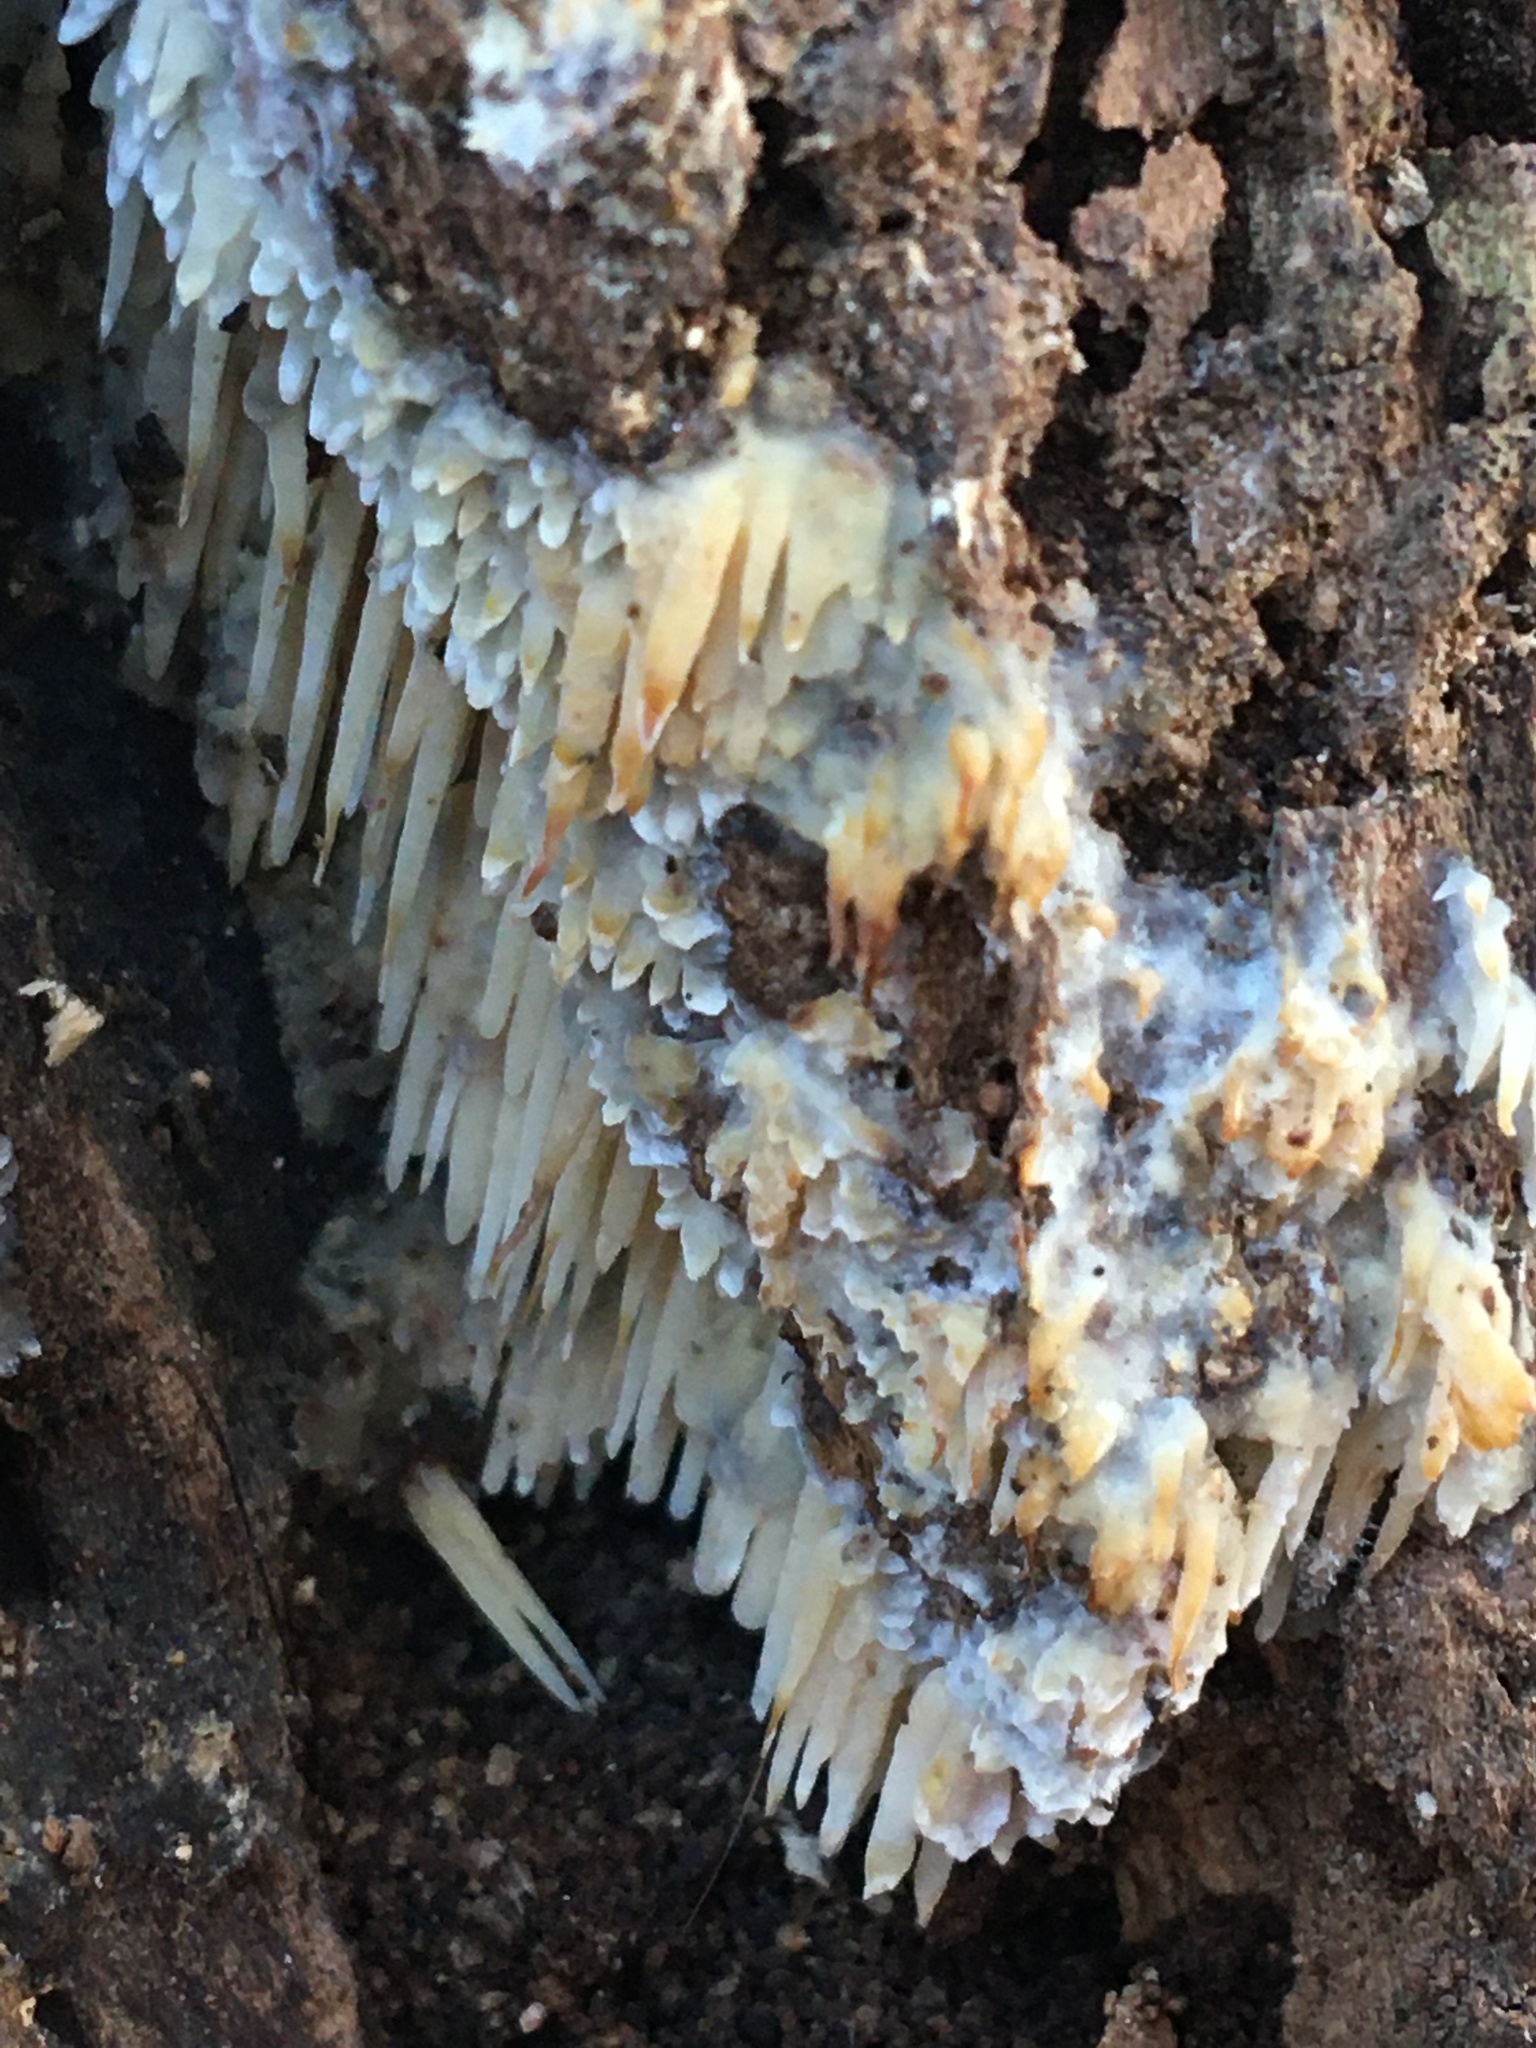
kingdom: Fungi
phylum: Basidiomycota
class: Agaricomycetes
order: Agaricales
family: Radulomycetaceae
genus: Radulomyces
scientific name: Radulomyces copelandii
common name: Asian beauty
